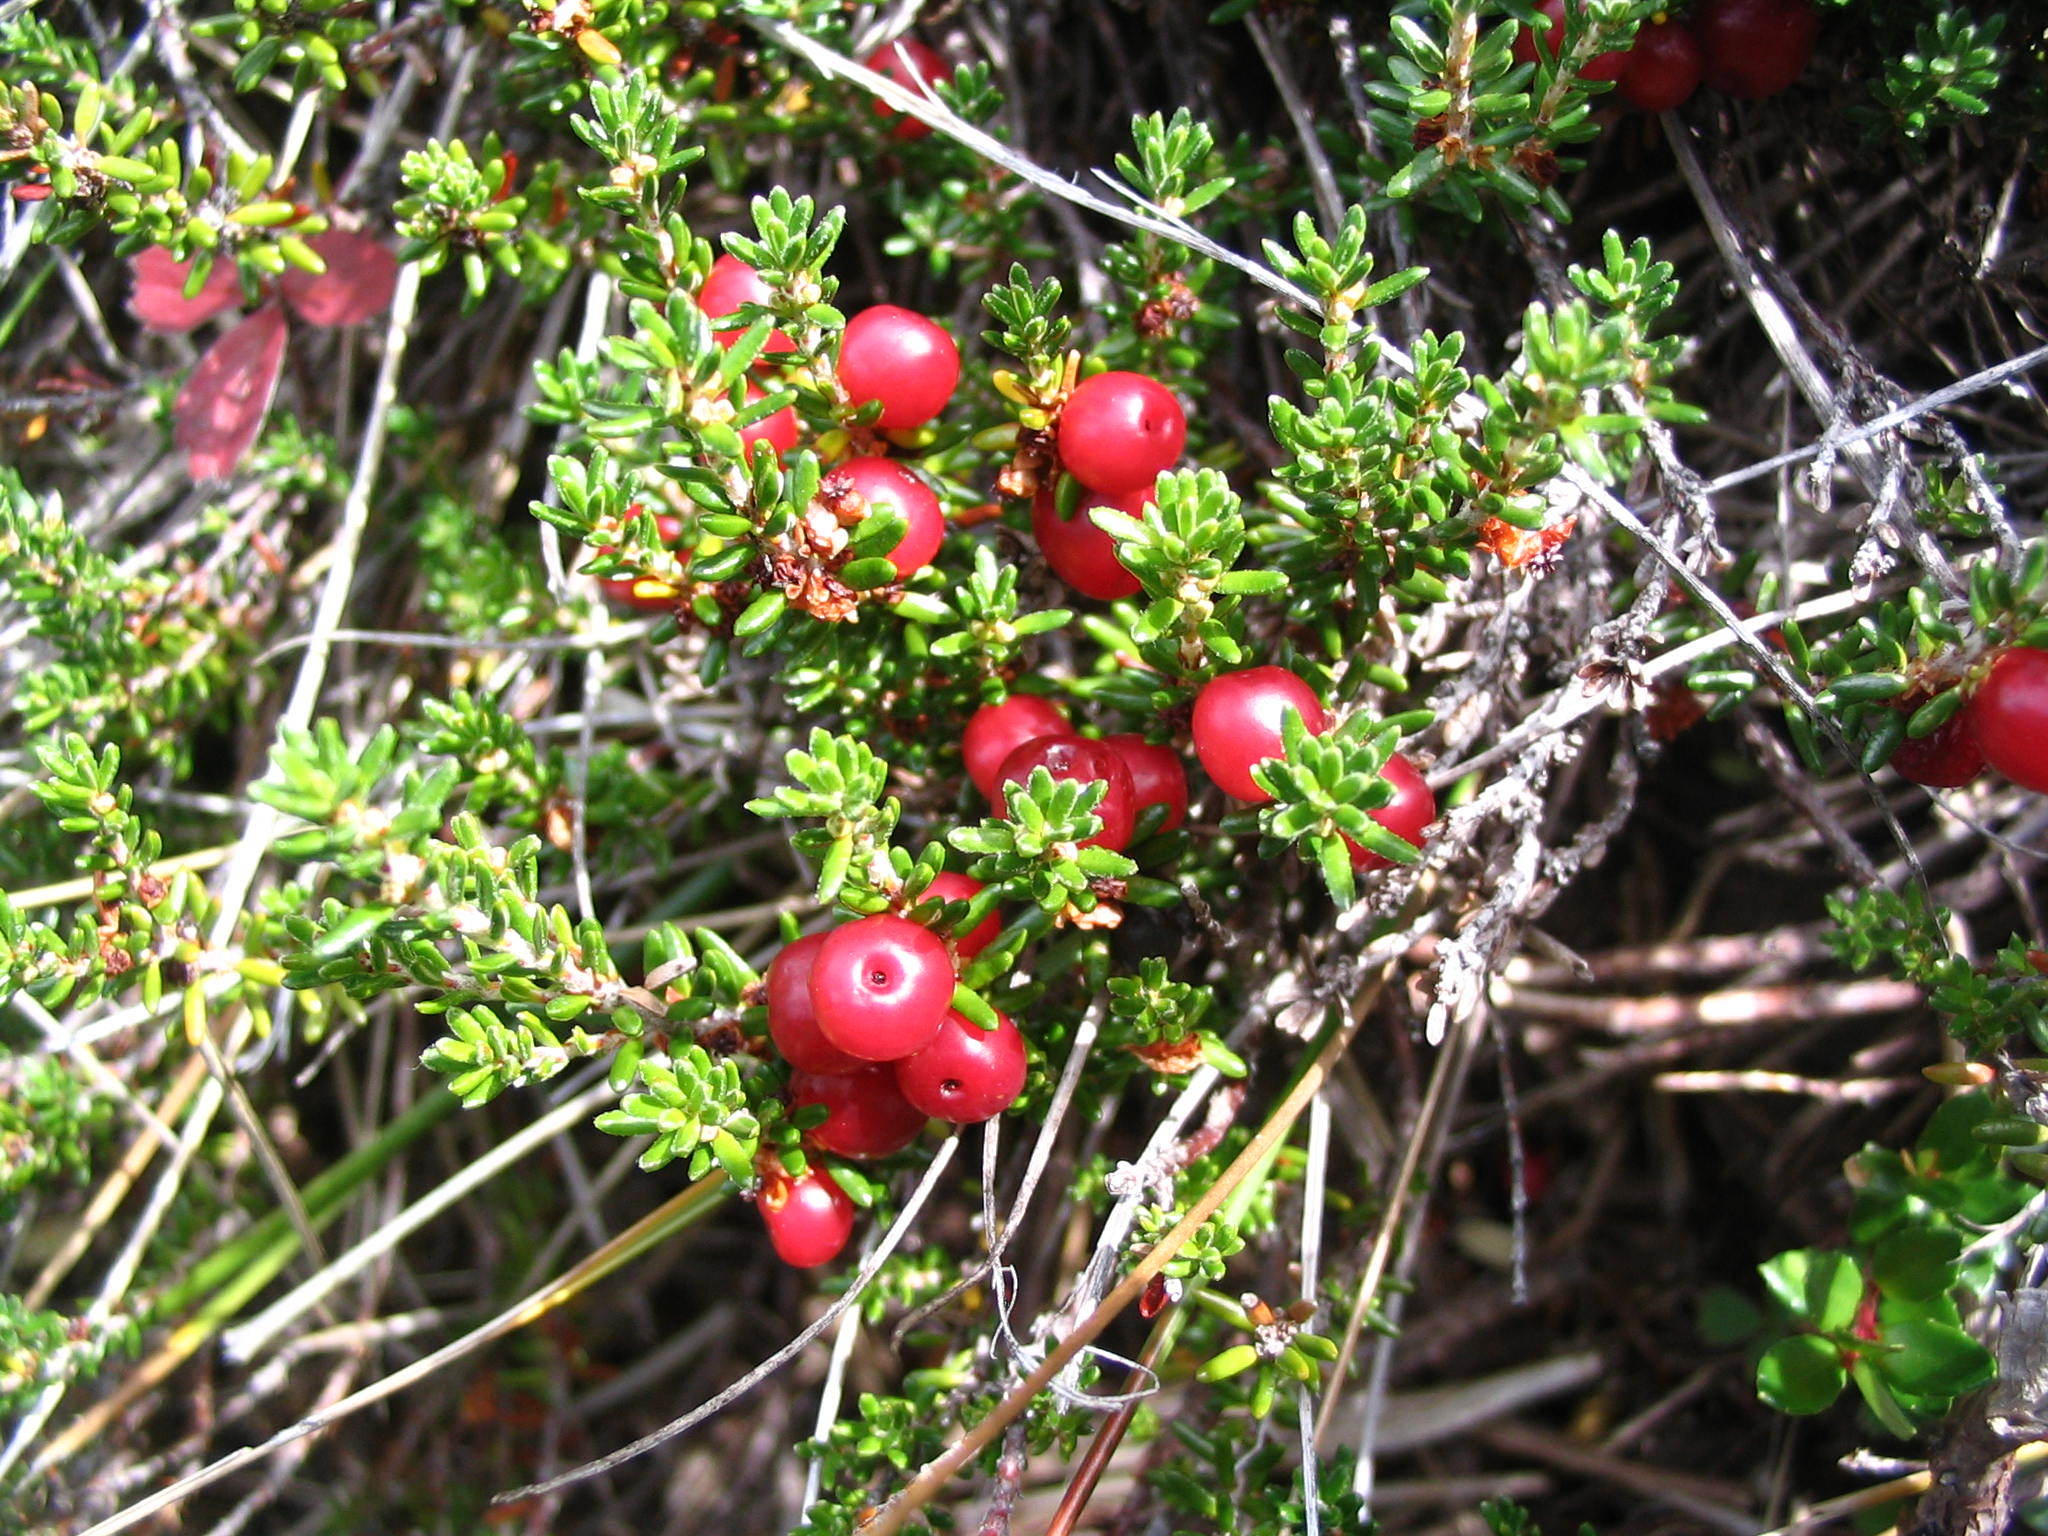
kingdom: Plantae
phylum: Tracheophyta
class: Magnoliopsida
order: Ericales
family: Ericaceae
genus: Empetrum
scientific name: Empetrum rubrum
